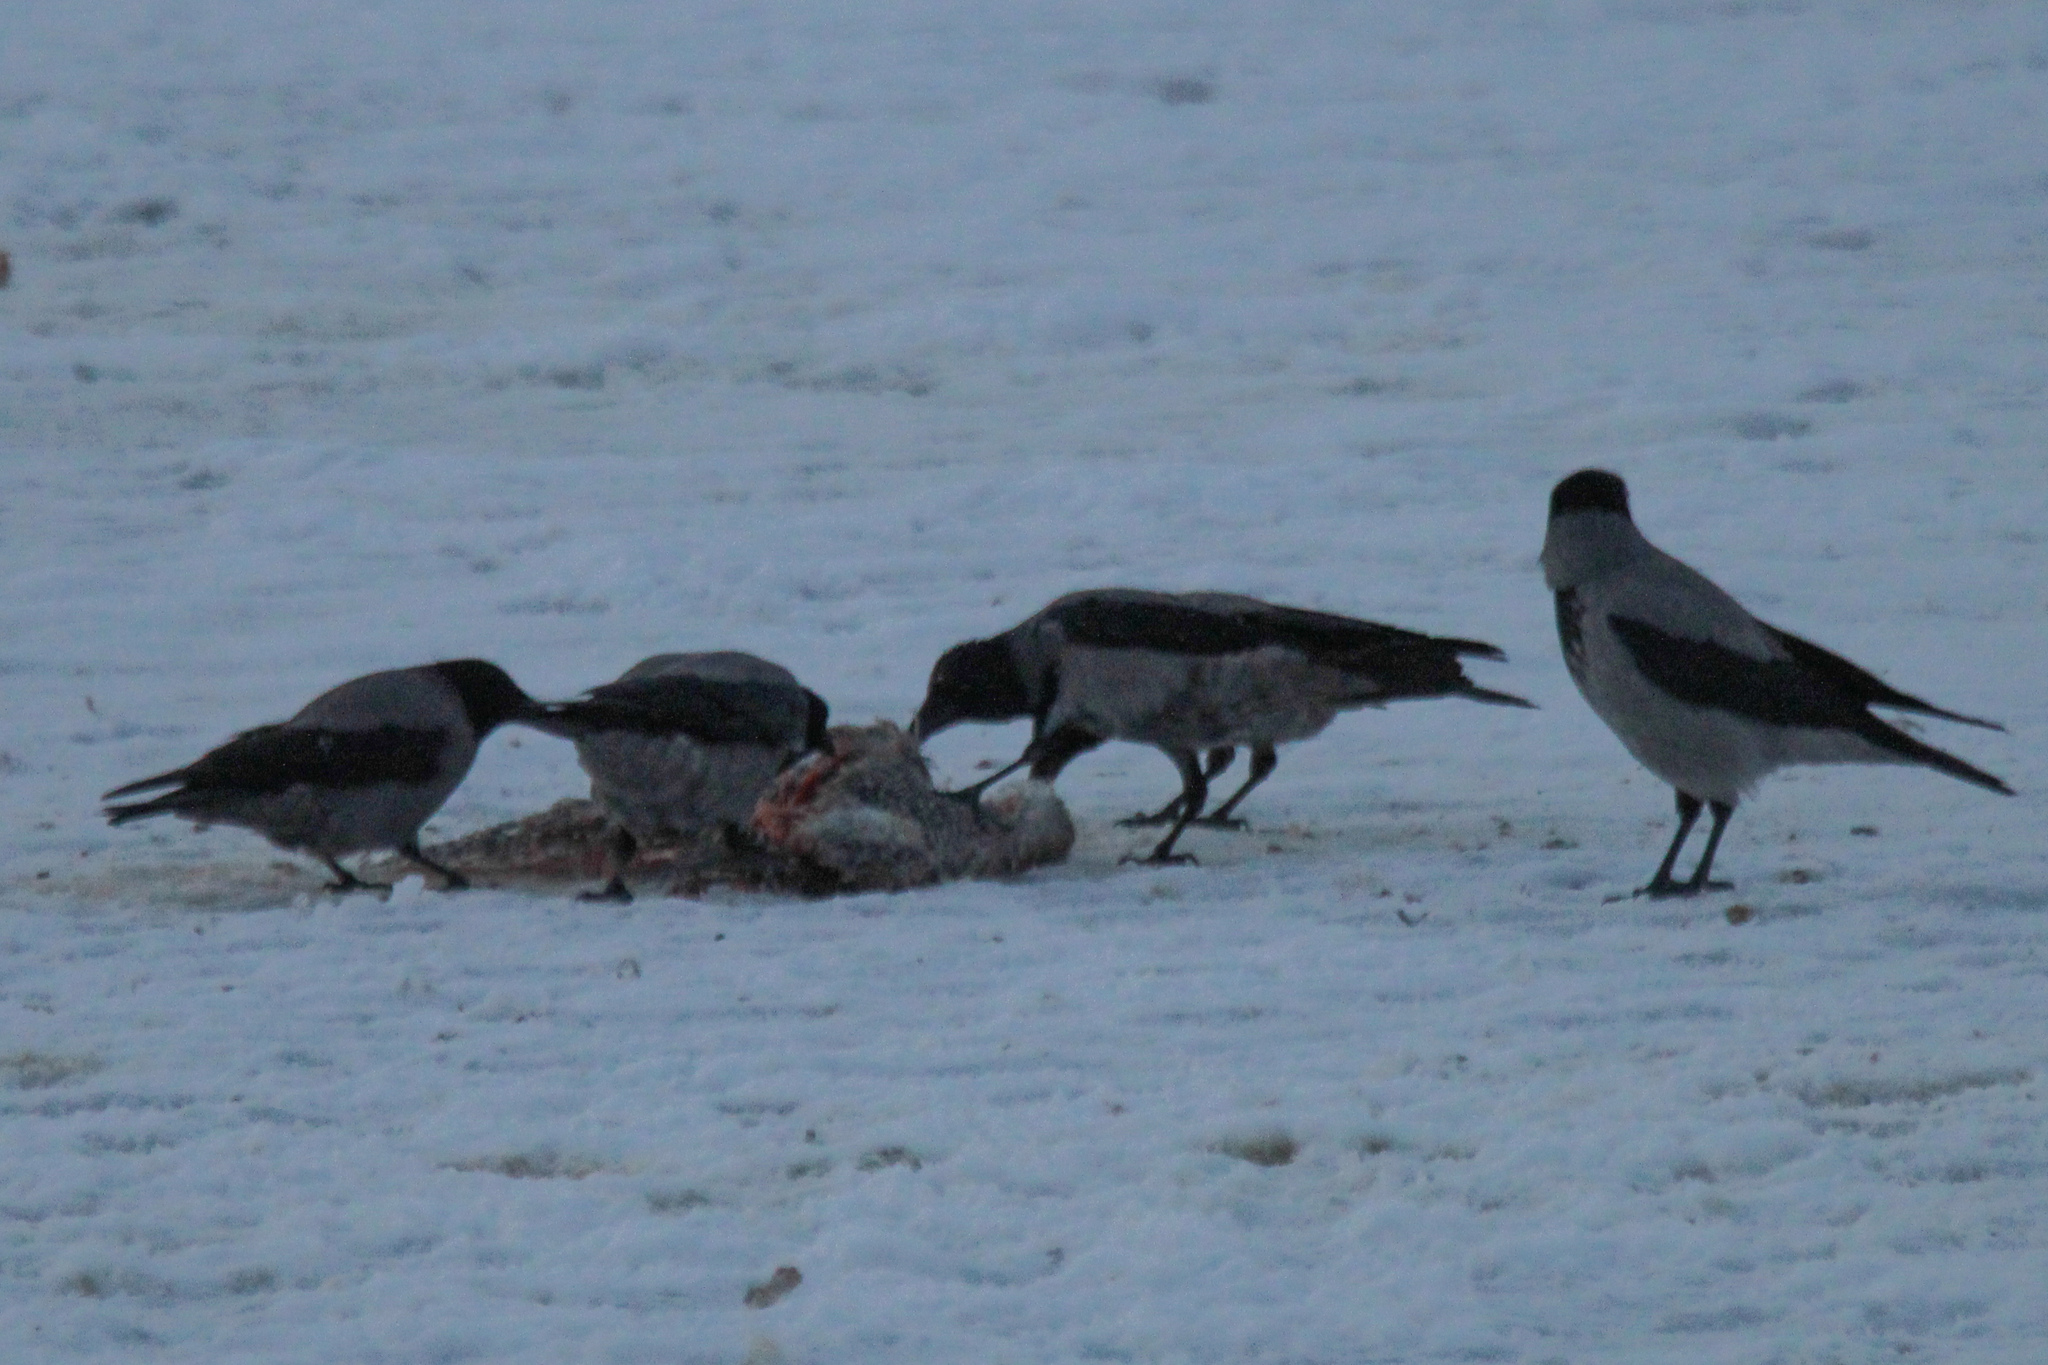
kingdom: Animalia
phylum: Chordata
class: Aves
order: Passeriformes
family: Corvidae
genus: Corvus
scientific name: Corvus cornix
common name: Hooded crow
